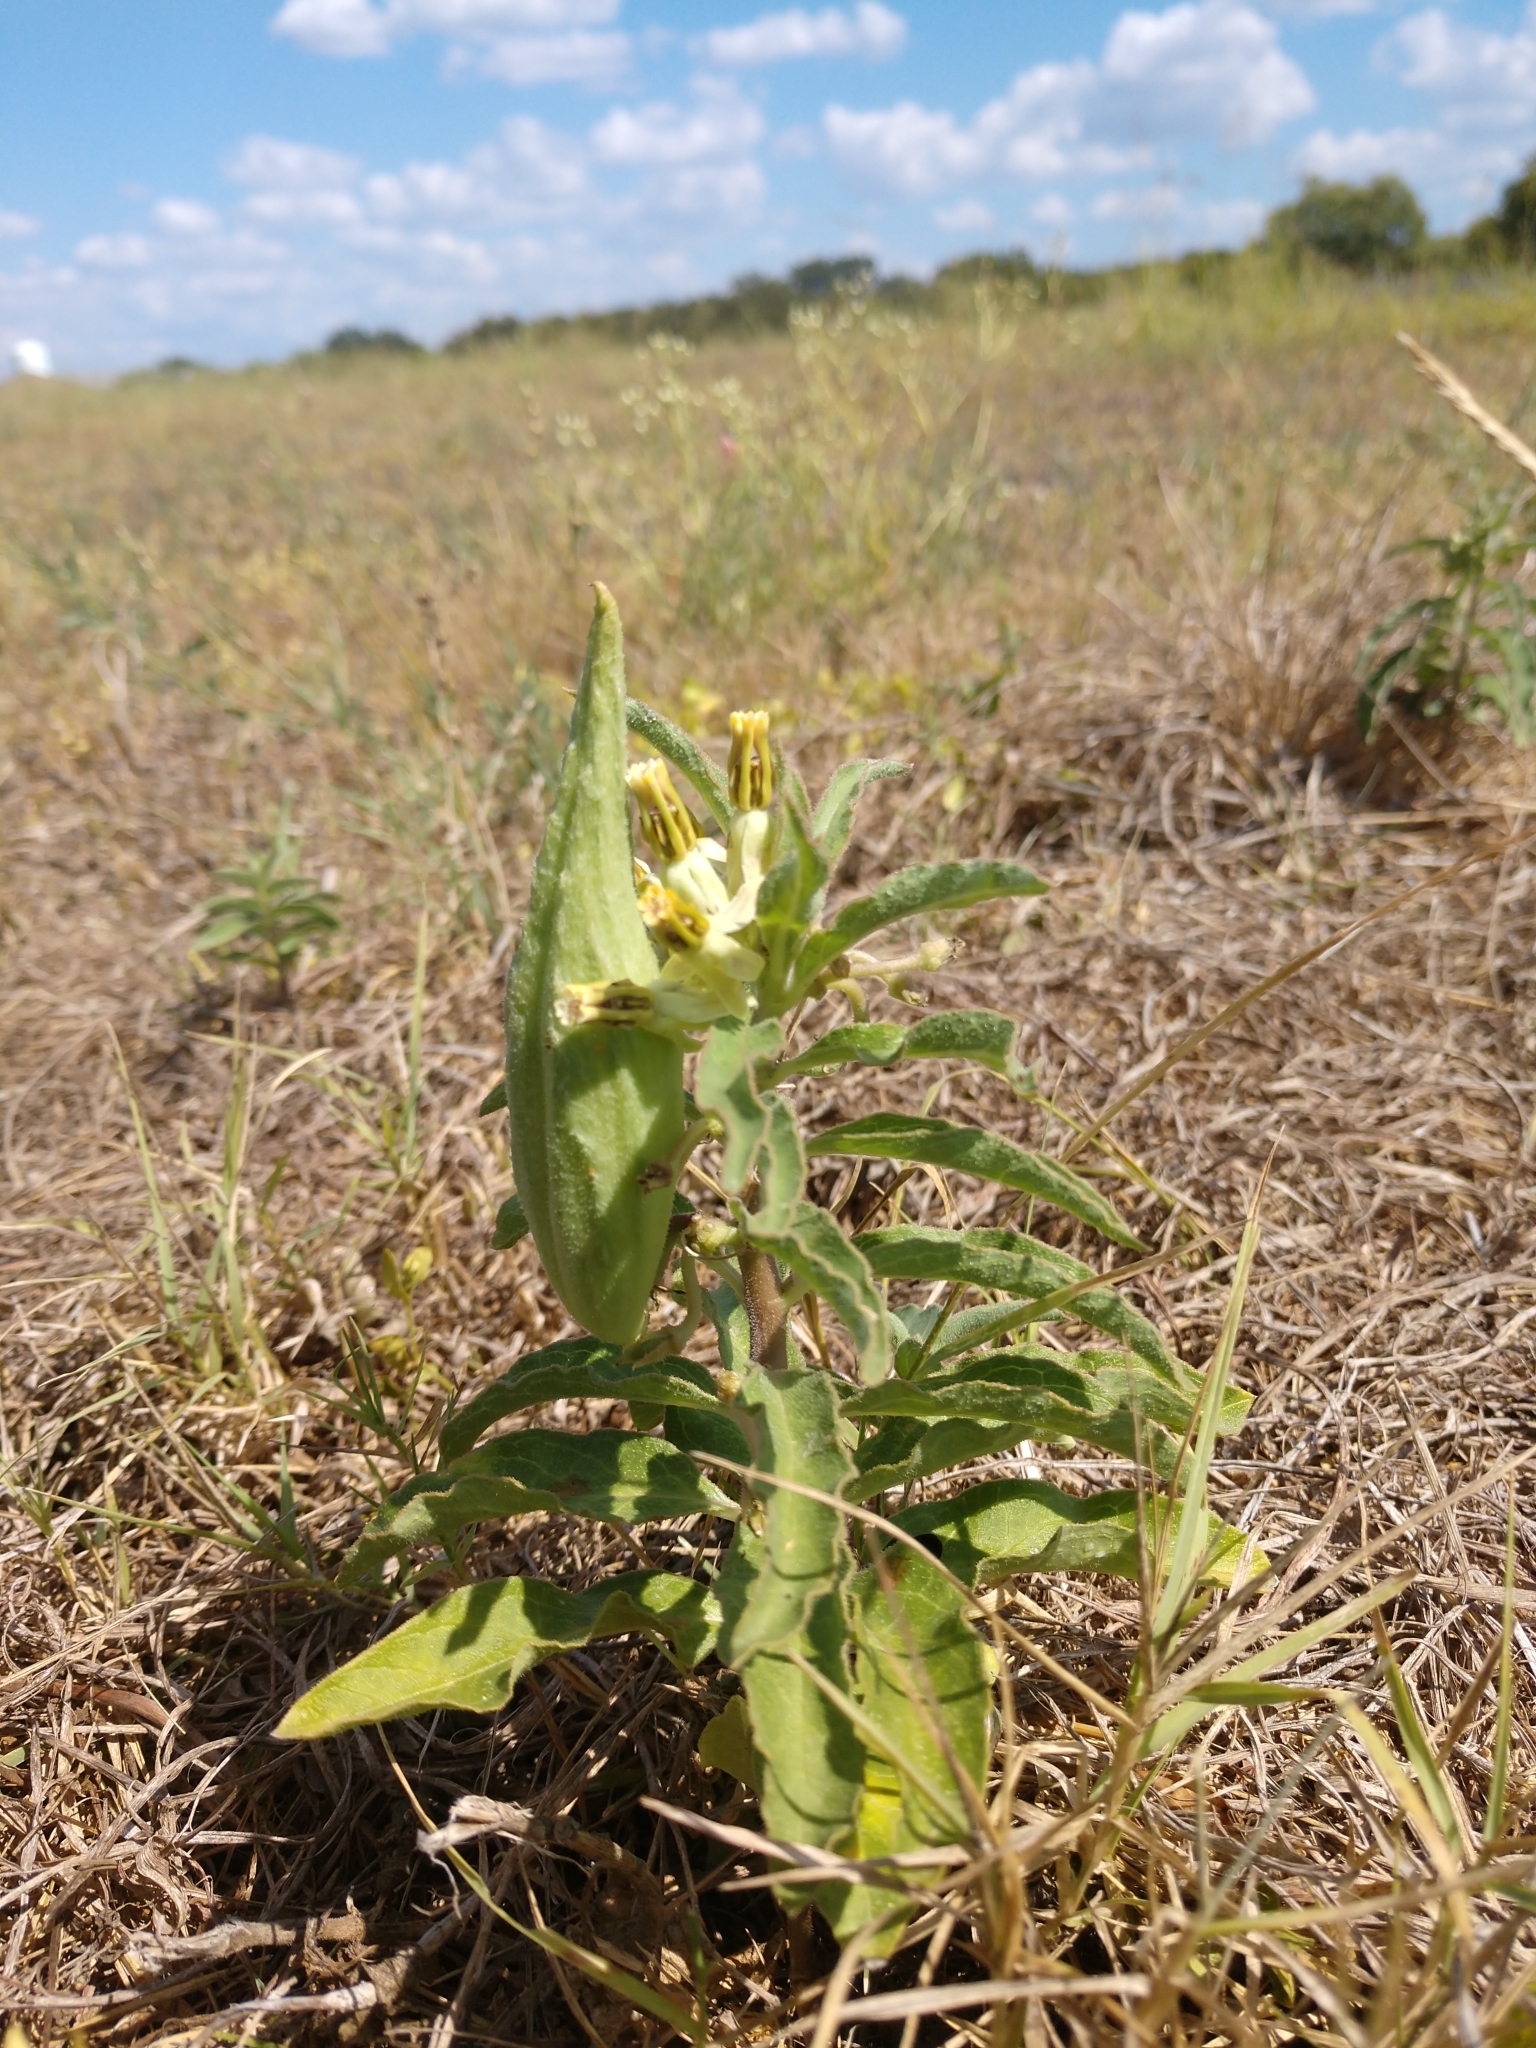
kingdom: Plantae
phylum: Tracheophyta
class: Magnoliopsida
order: Gentianales
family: Apocynaceae
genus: Asclepias
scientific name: Asclepias oenotheroides
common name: Zizotes milkweed
